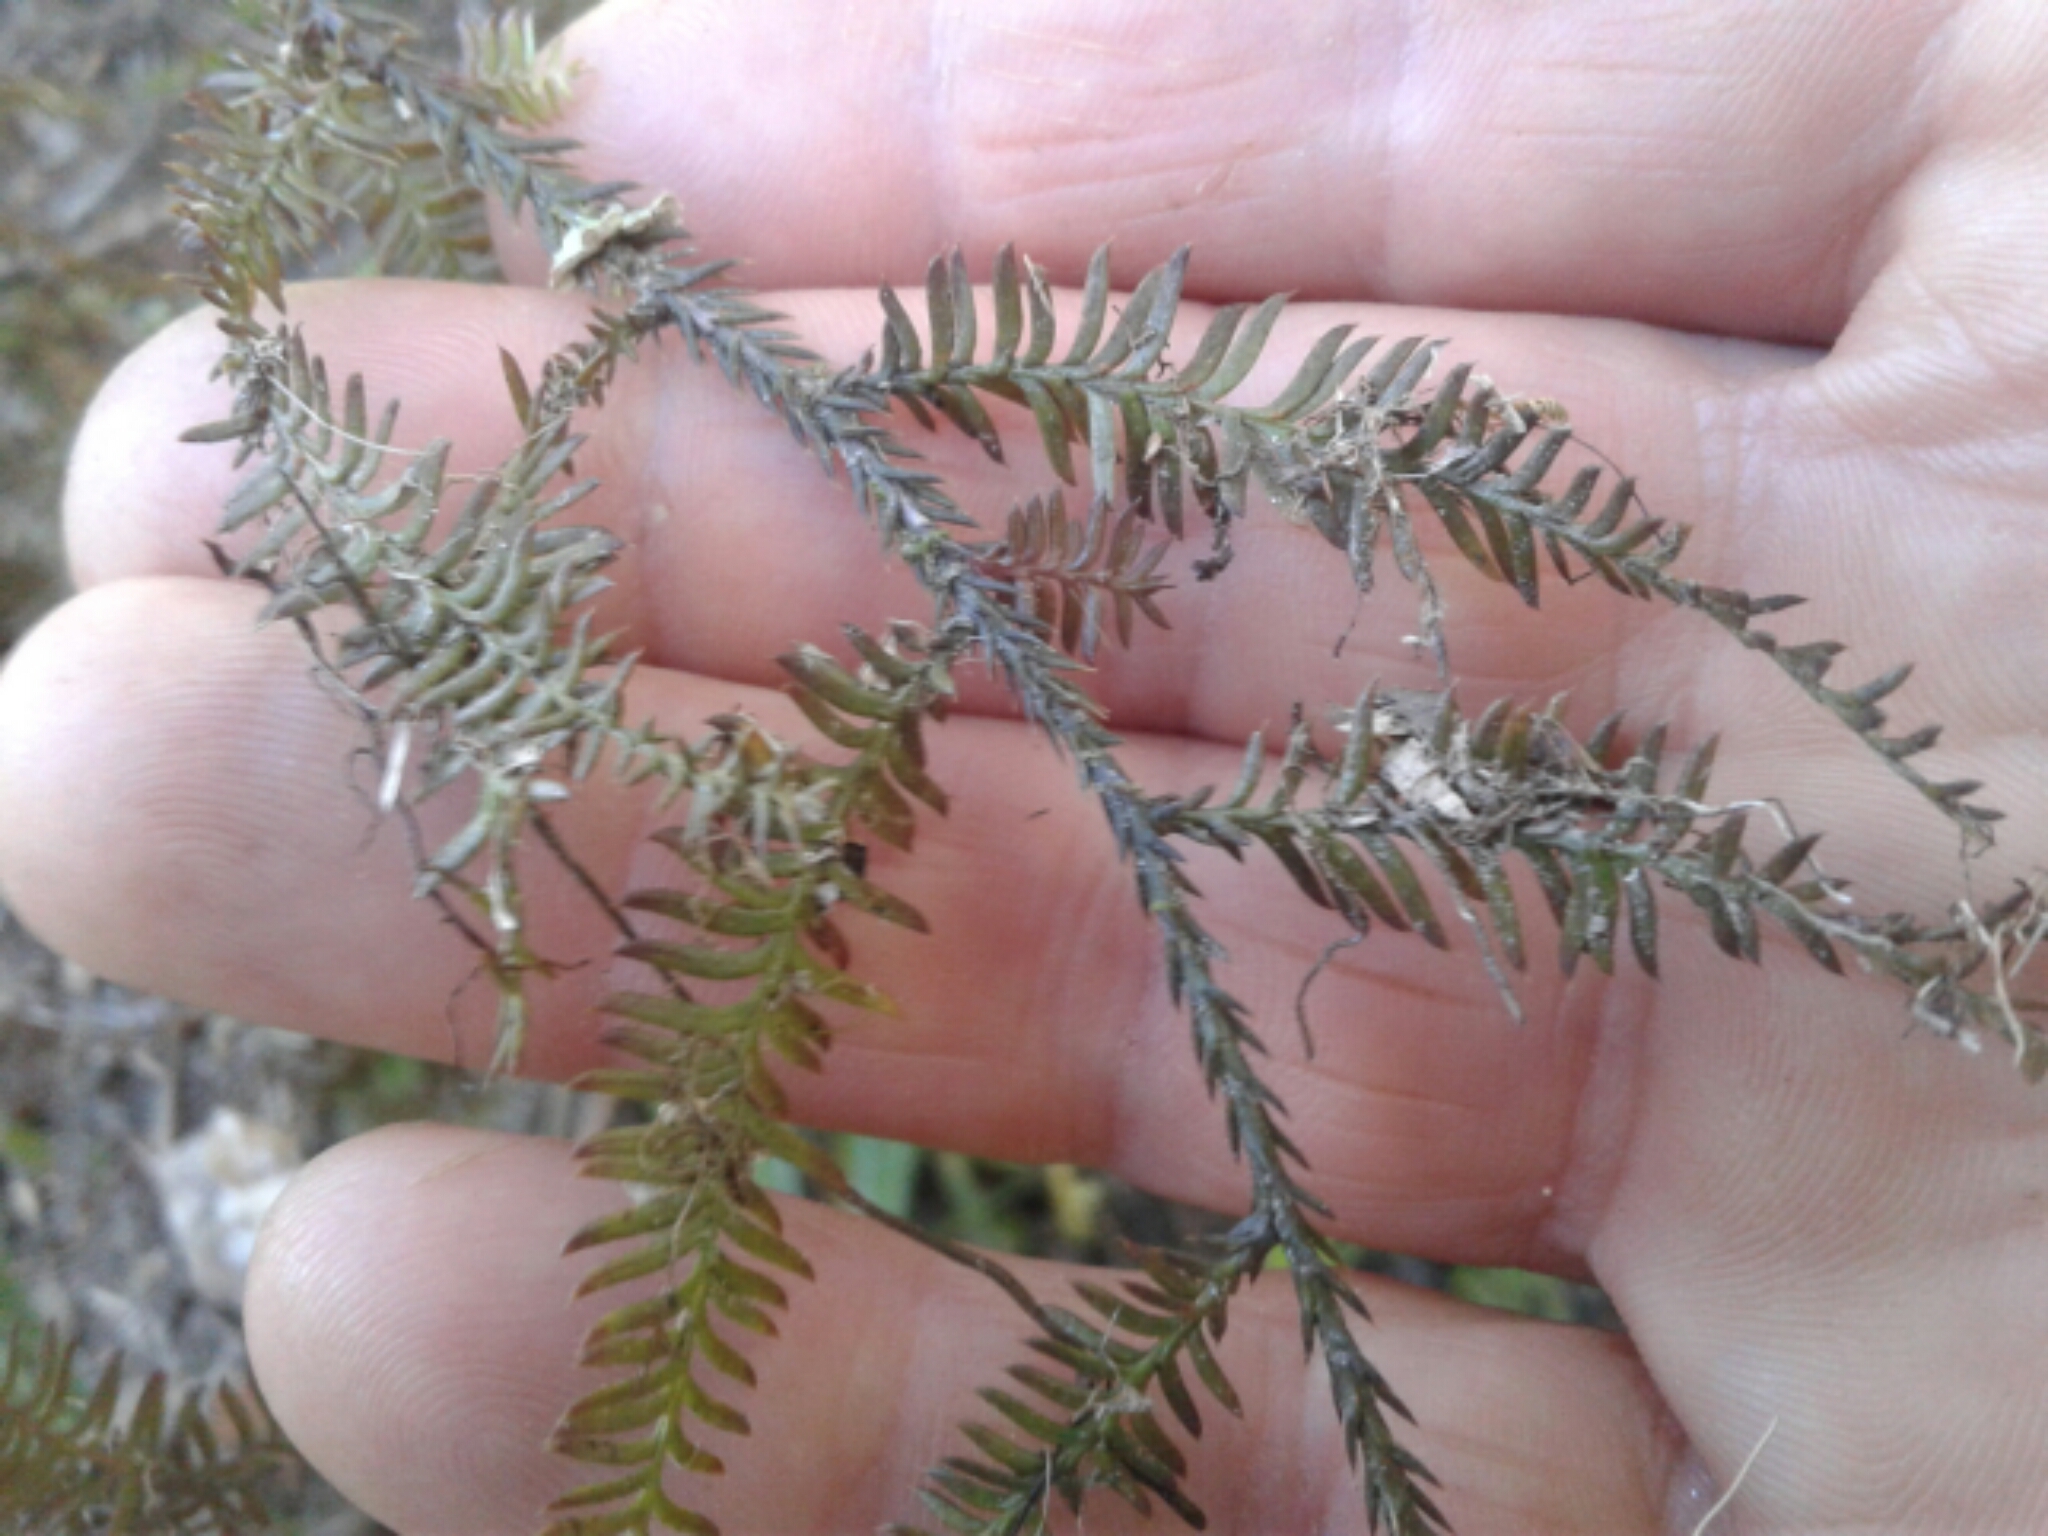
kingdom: Plantae
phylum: Tracheophyta
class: Pinopsida
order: Pinales
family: Podocarpaceae
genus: Dacrycarpus
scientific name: Dacrycarpus dacrydioides
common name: White pine
